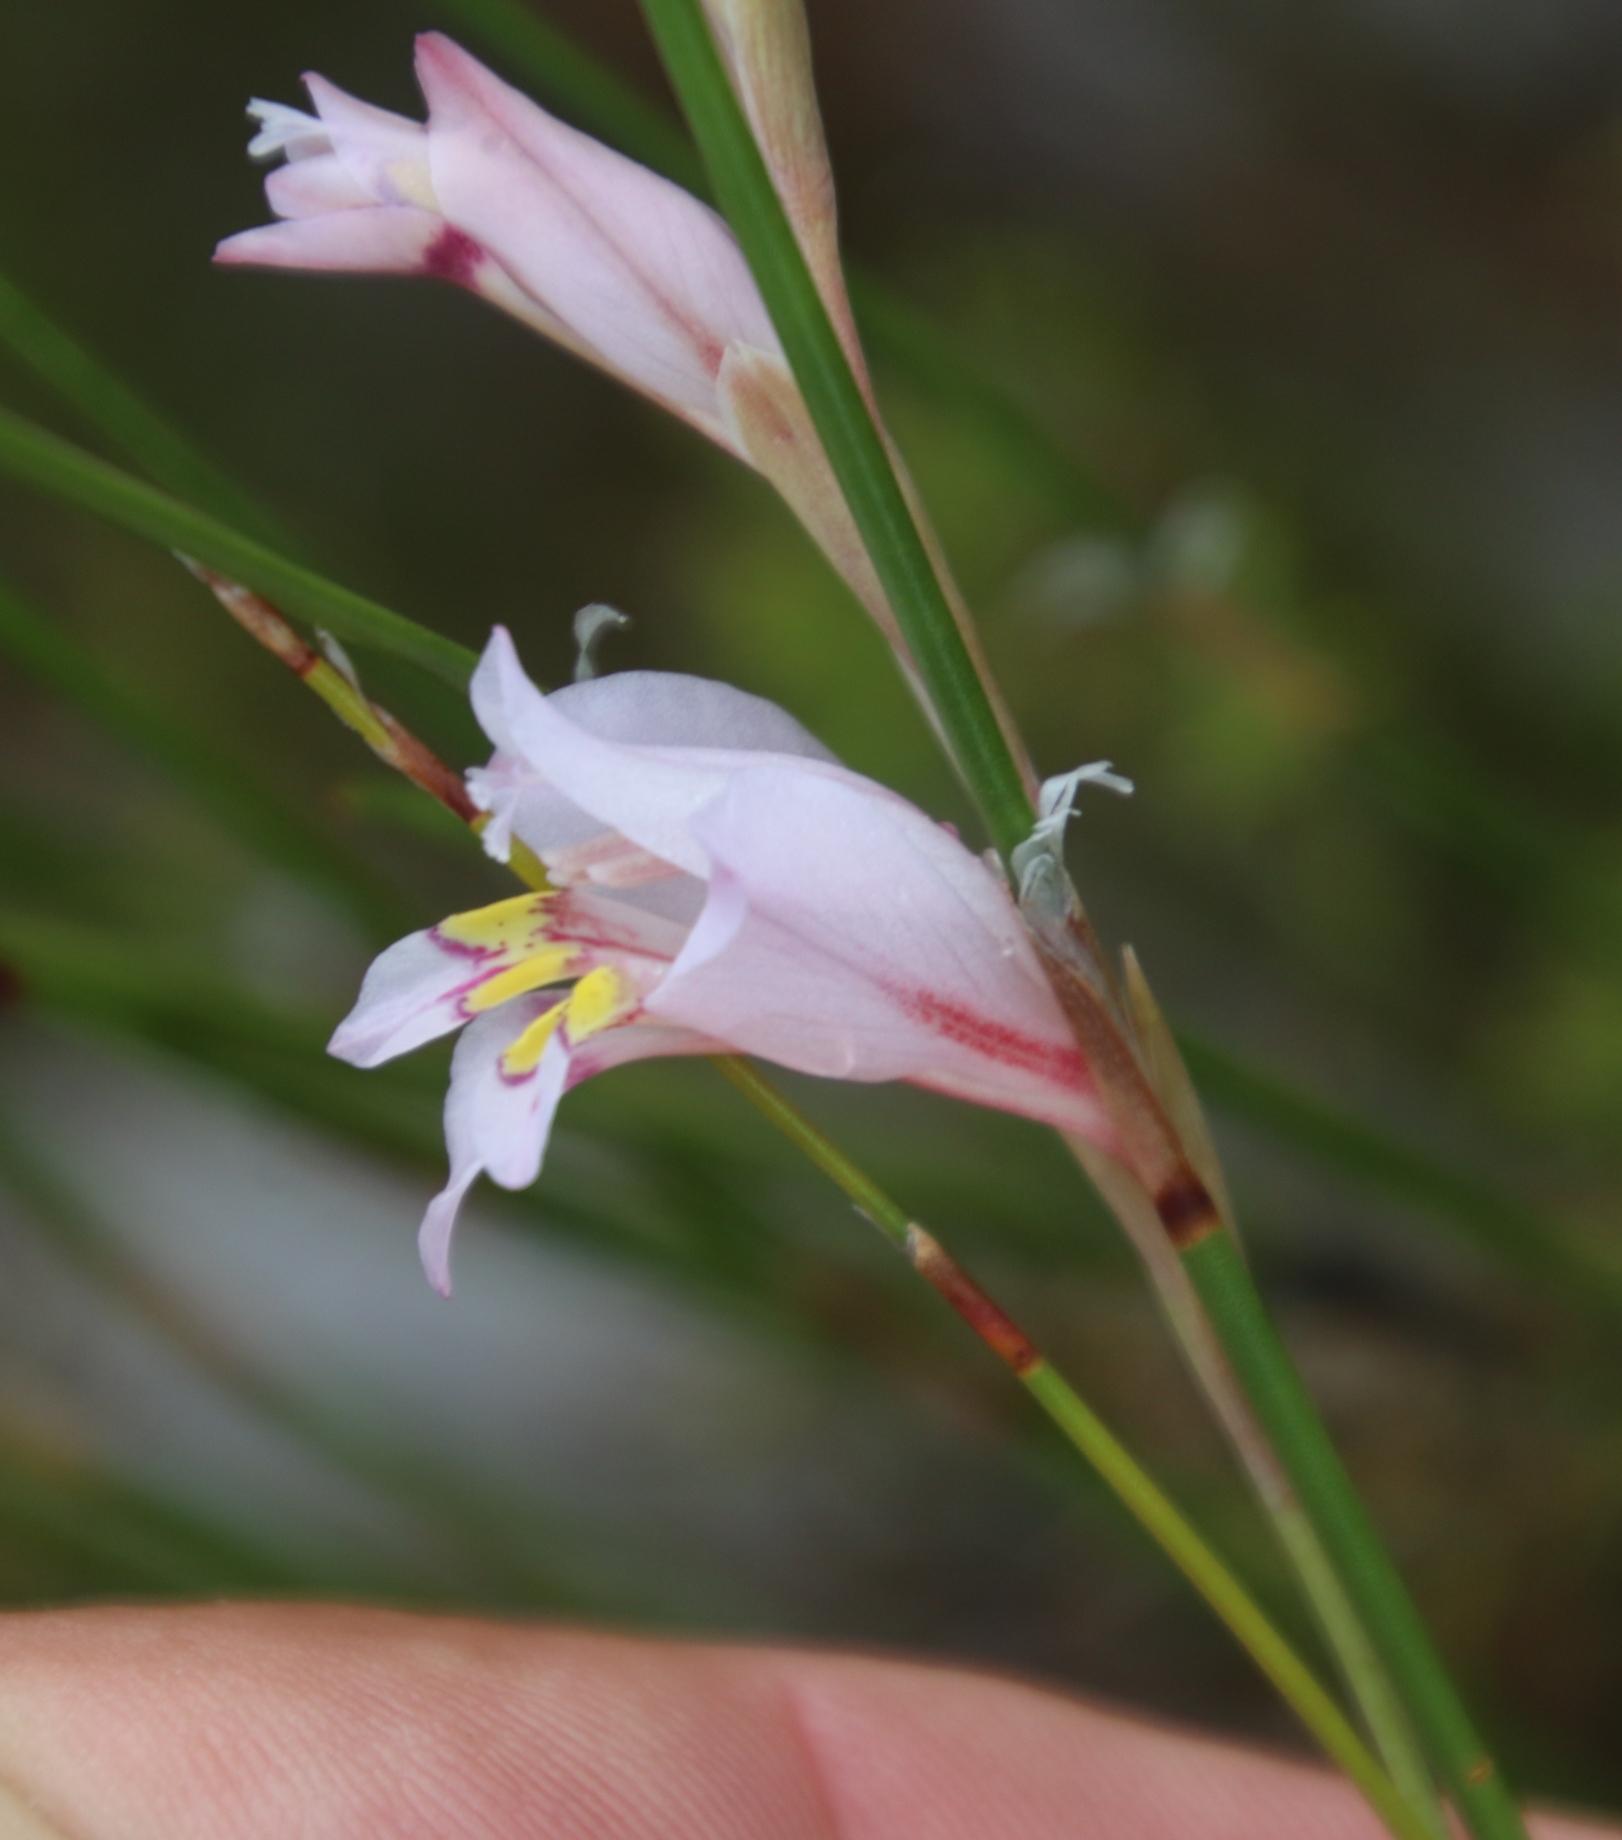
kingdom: Plantae
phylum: Tracheophyta
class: Liliopsida
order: Asparagales
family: Iridaceae
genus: Gladiolus
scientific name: Gladiolus martleyi
